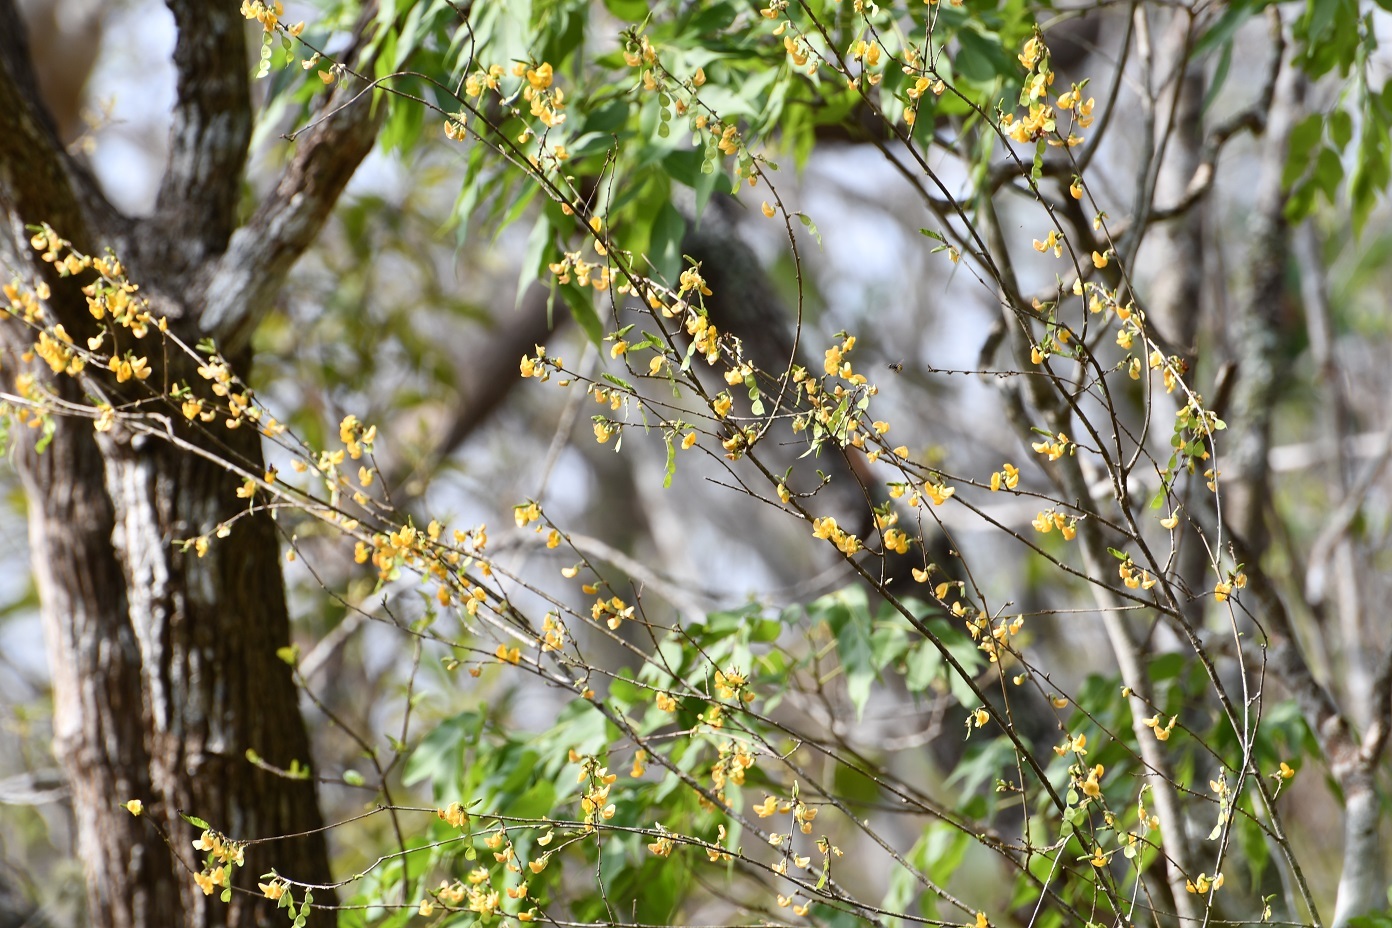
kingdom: Plantae
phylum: Tracheophyta
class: Magnoliopsida
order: Fabales
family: Fabaceae
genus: Ctenodon
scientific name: Ctenodon compactus
